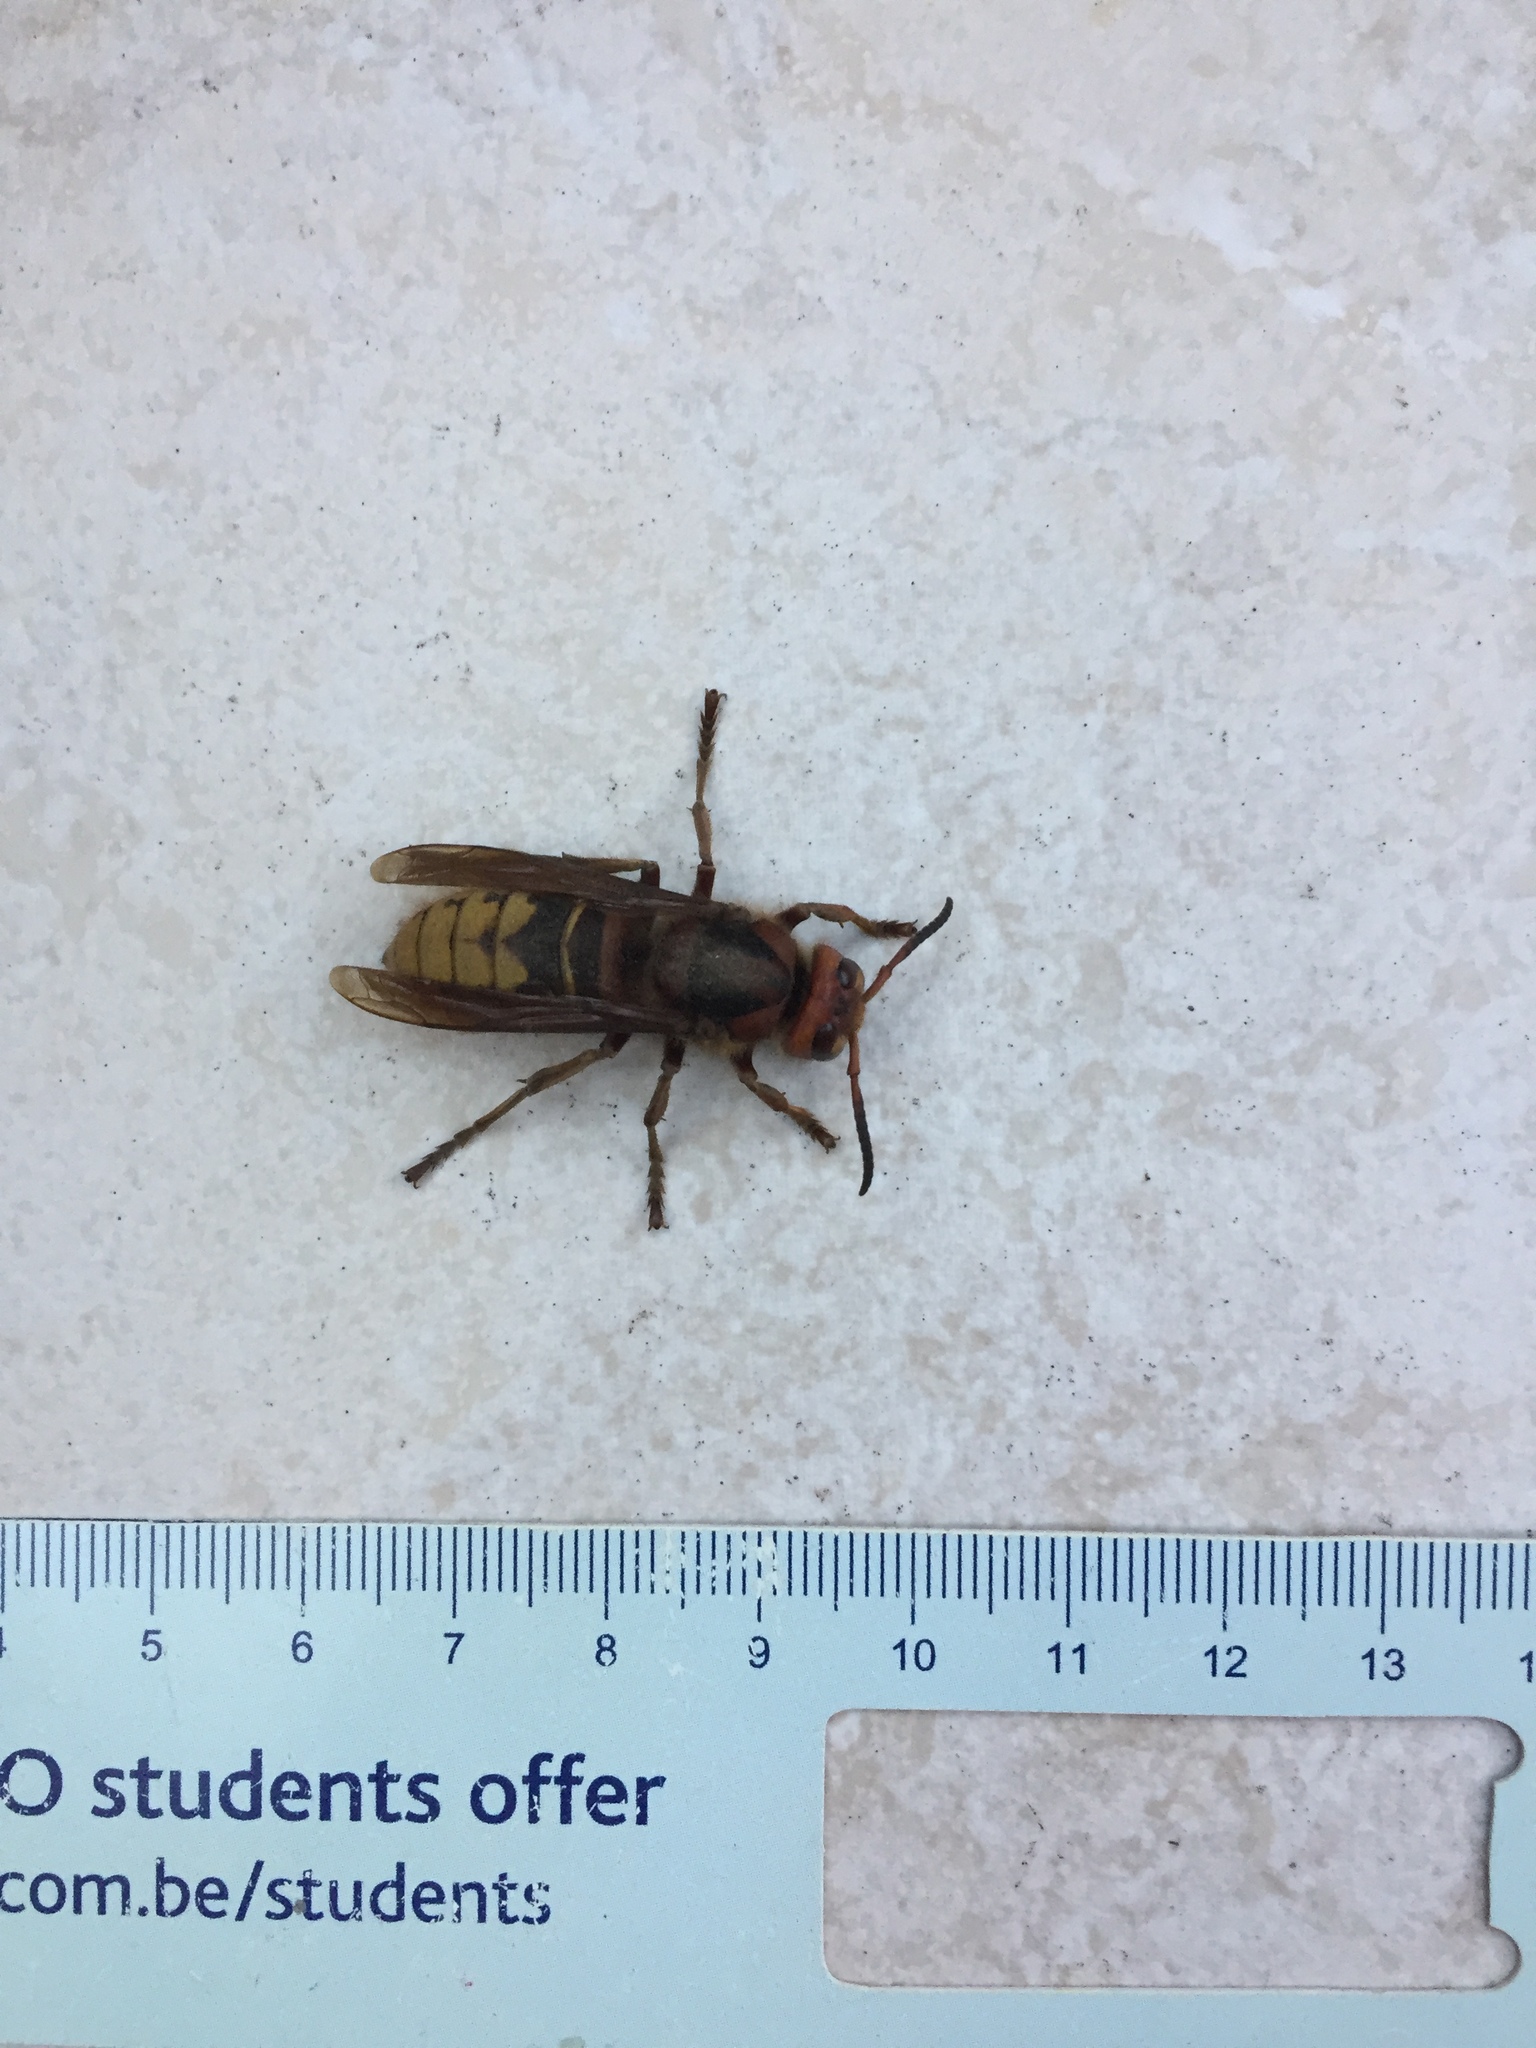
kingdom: Animalia
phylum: Arthropoda
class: Insecta
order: Hymenoptera
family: Vespidae
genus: Vespa
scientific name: Vespa crabro
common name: Hornet
